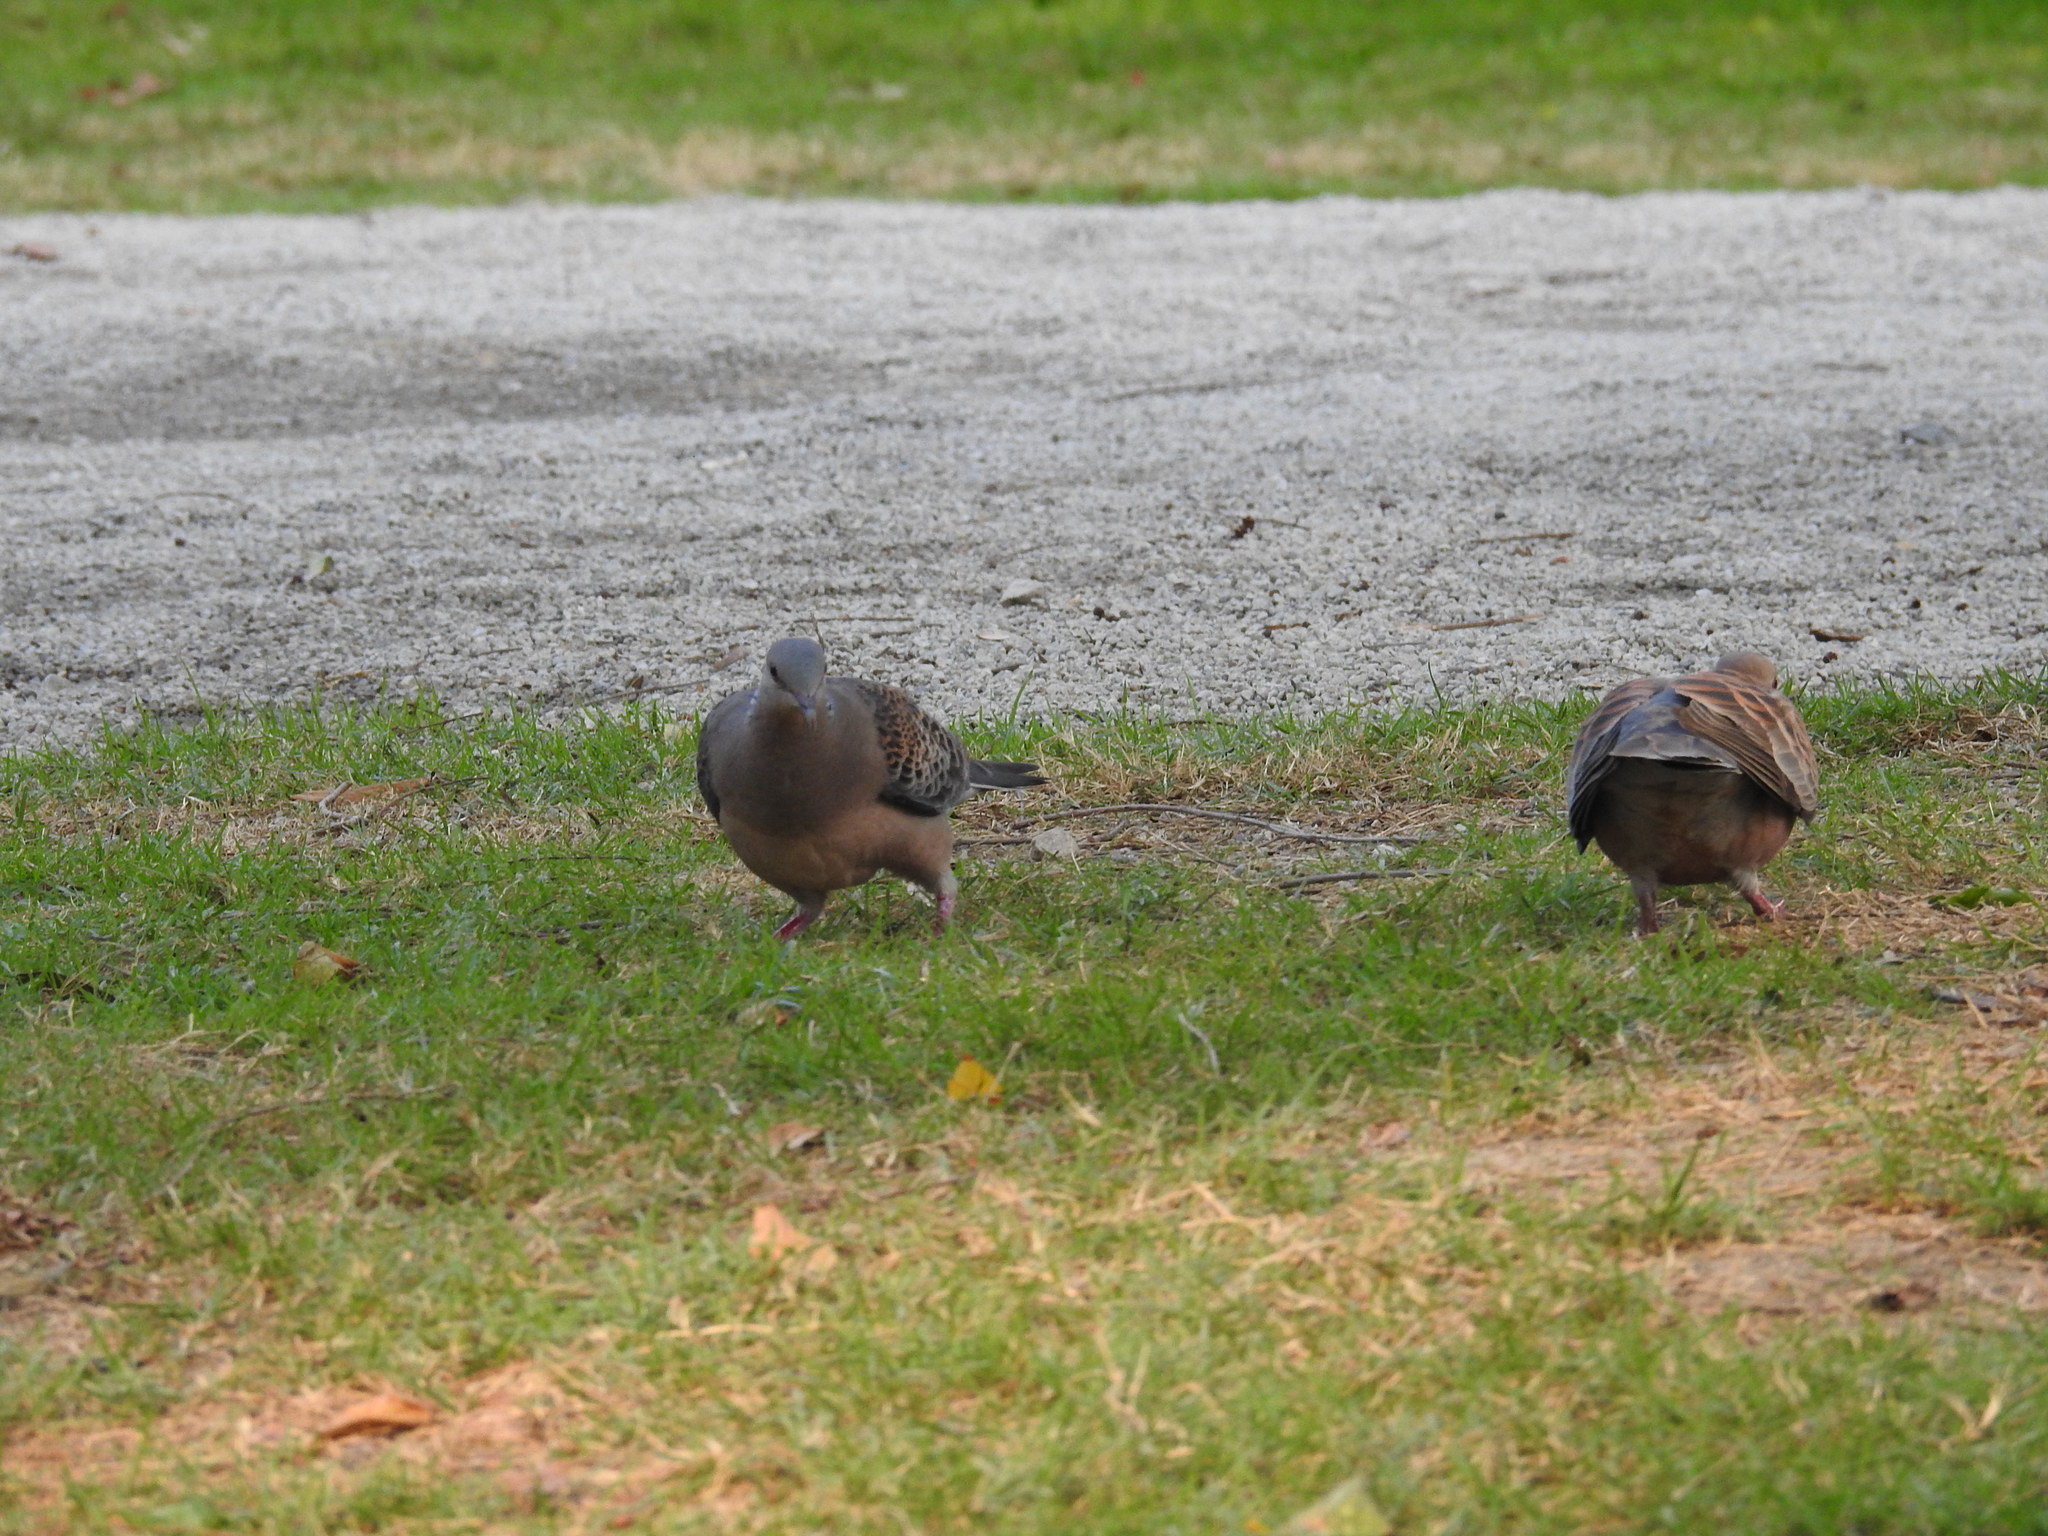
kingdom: Animalia
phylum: Chordata
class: Aves
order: Columbiformes
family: Columbidae
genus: Streptopelia
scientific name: Streptopelia orientalis
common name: Oriental turtle dove
